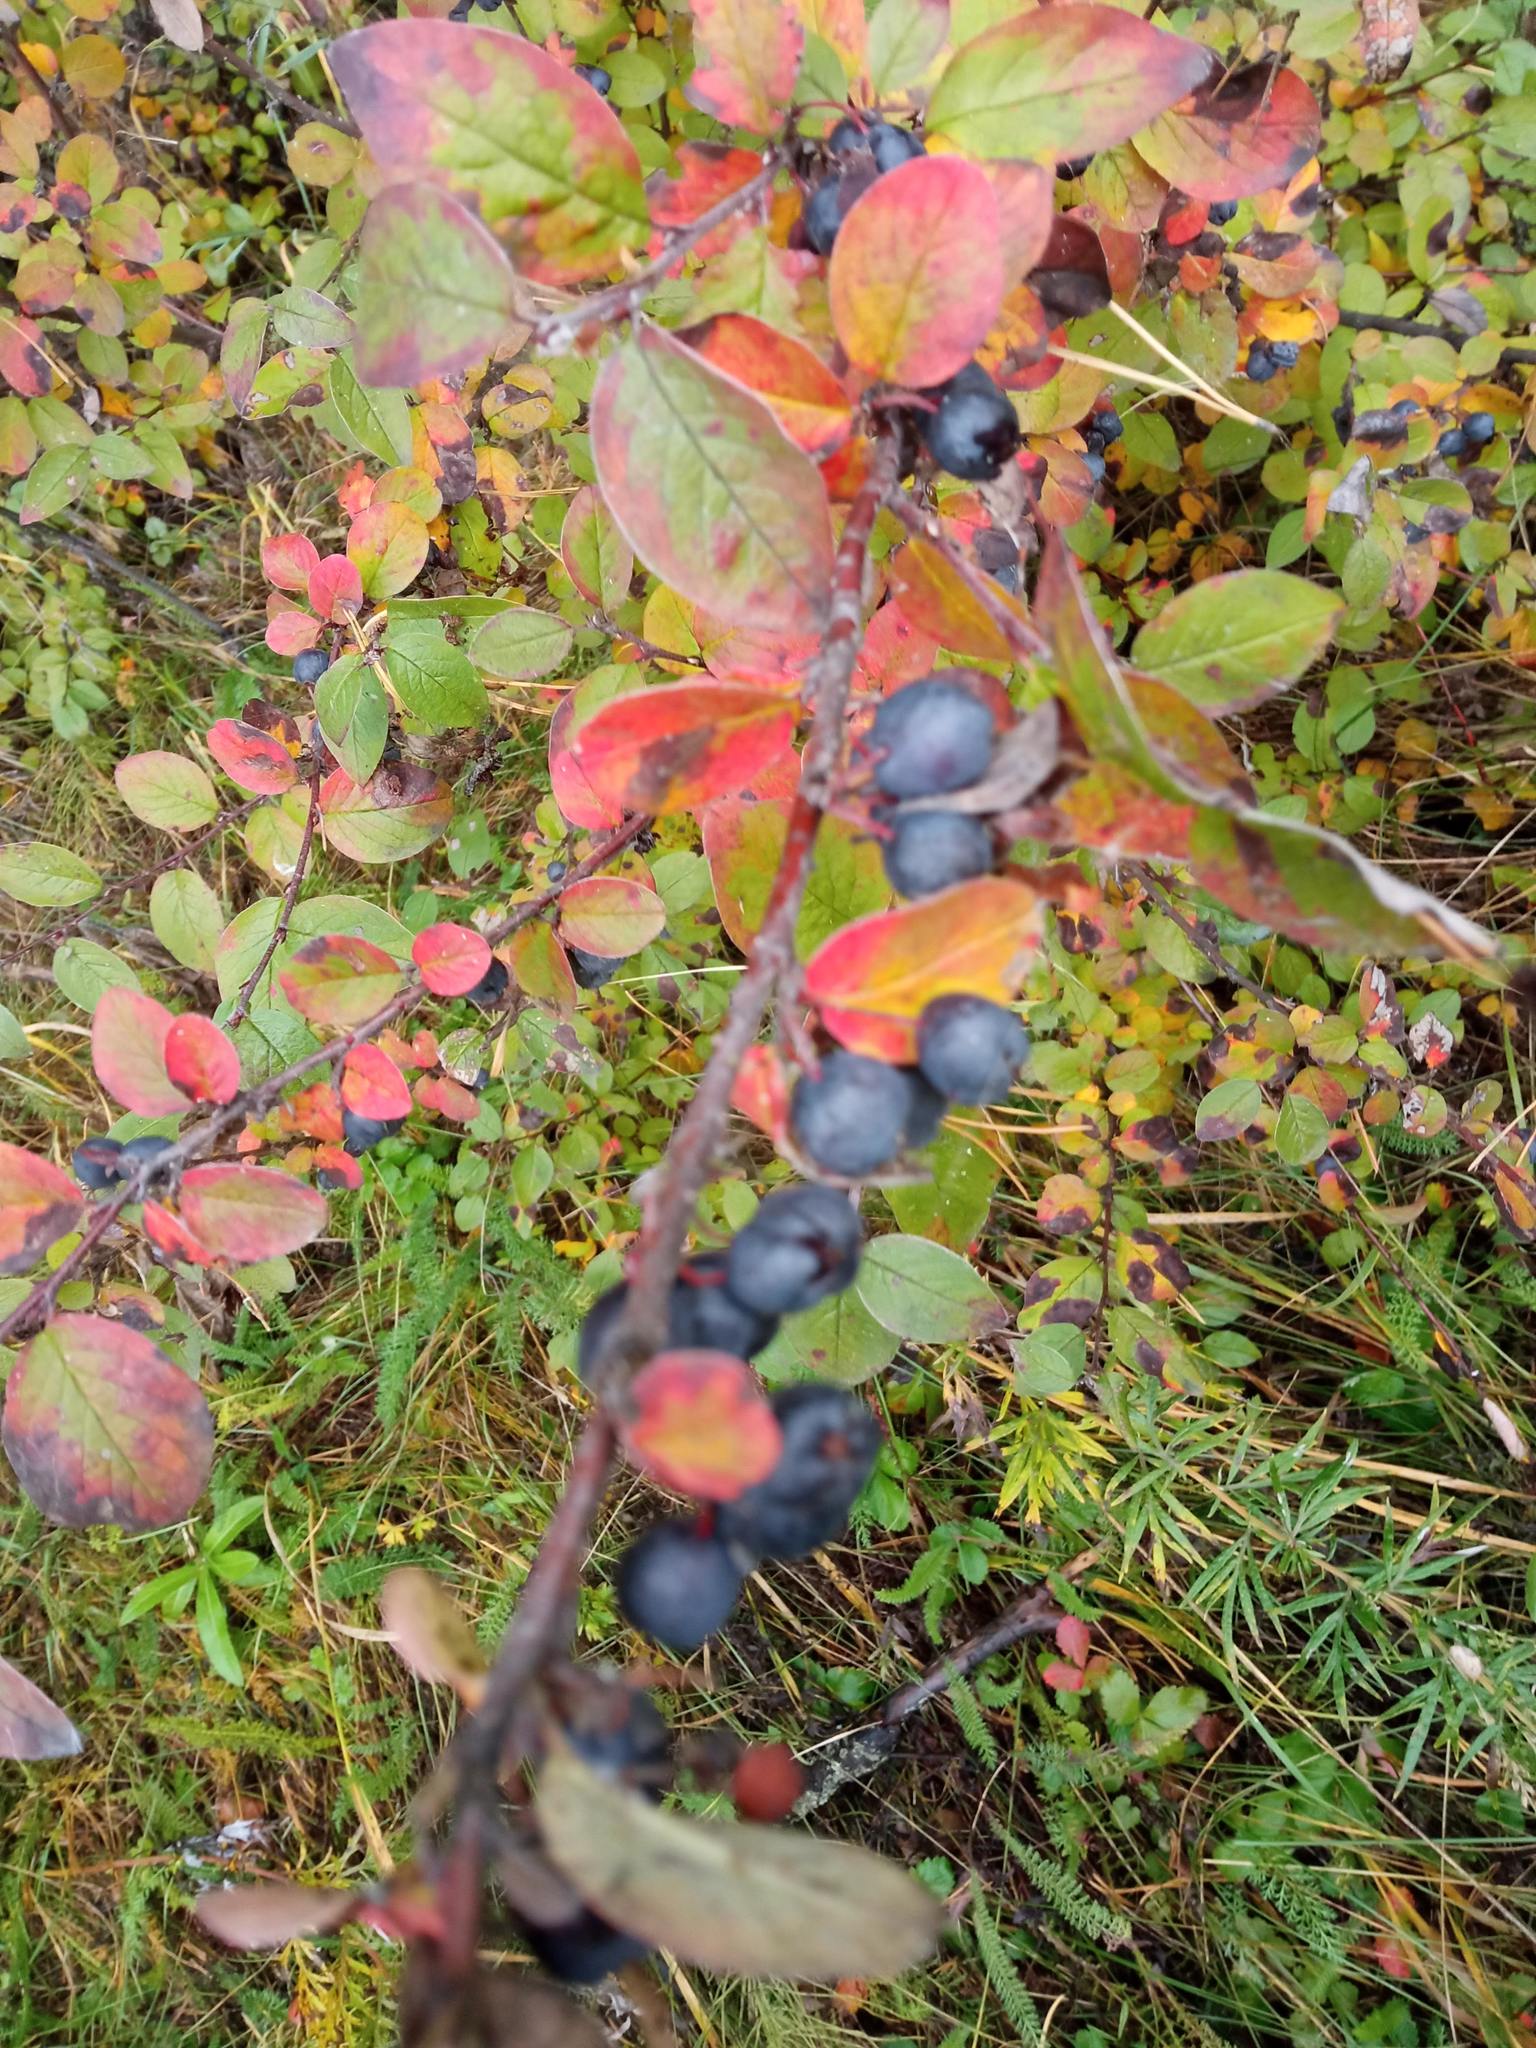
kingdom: Plantae
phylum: Tracheophyta
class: Magnoliopsida
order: Rosales
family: Rosaceae
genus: Cotoneaster
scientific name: Cotoneaster melanocarpus
